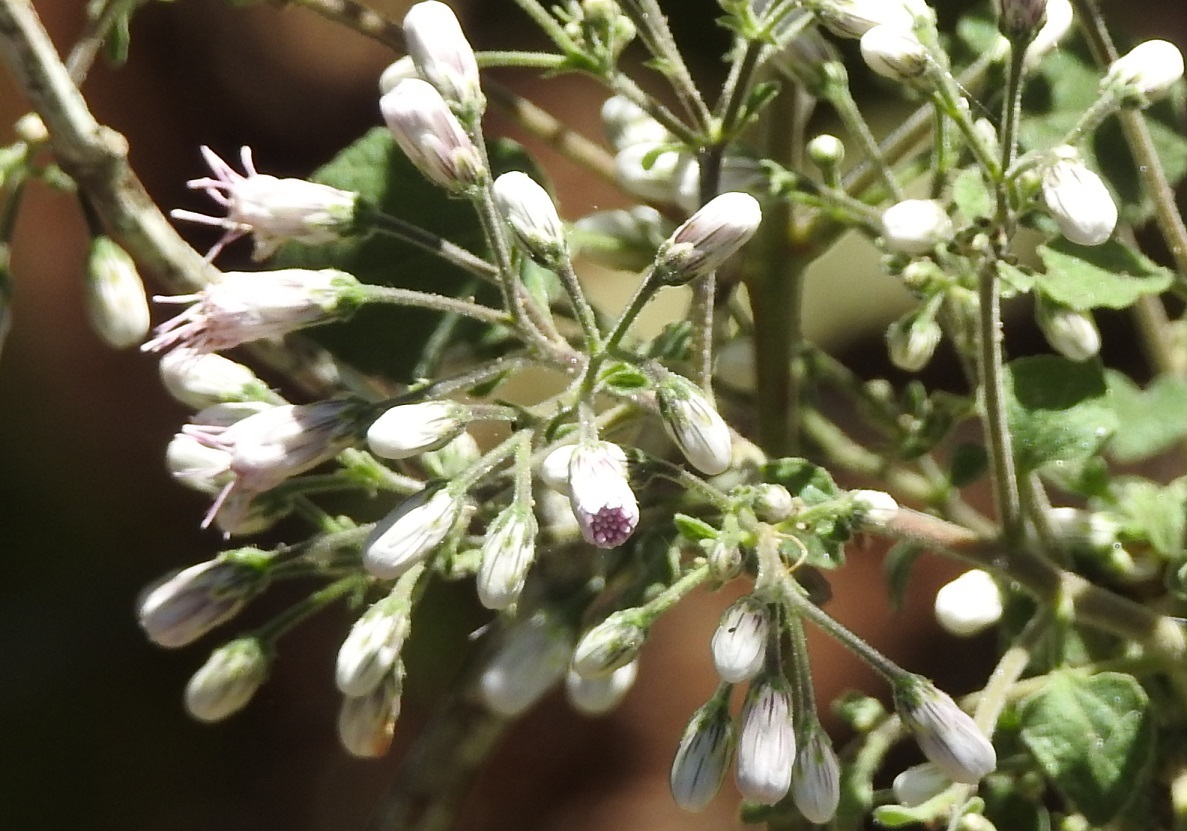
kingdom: Plantae
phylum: Tracheophyta
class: Magnoliopsida
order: Asterales
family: Asteraceae
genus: Peteravenia
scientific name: Peteravenia schultzii
